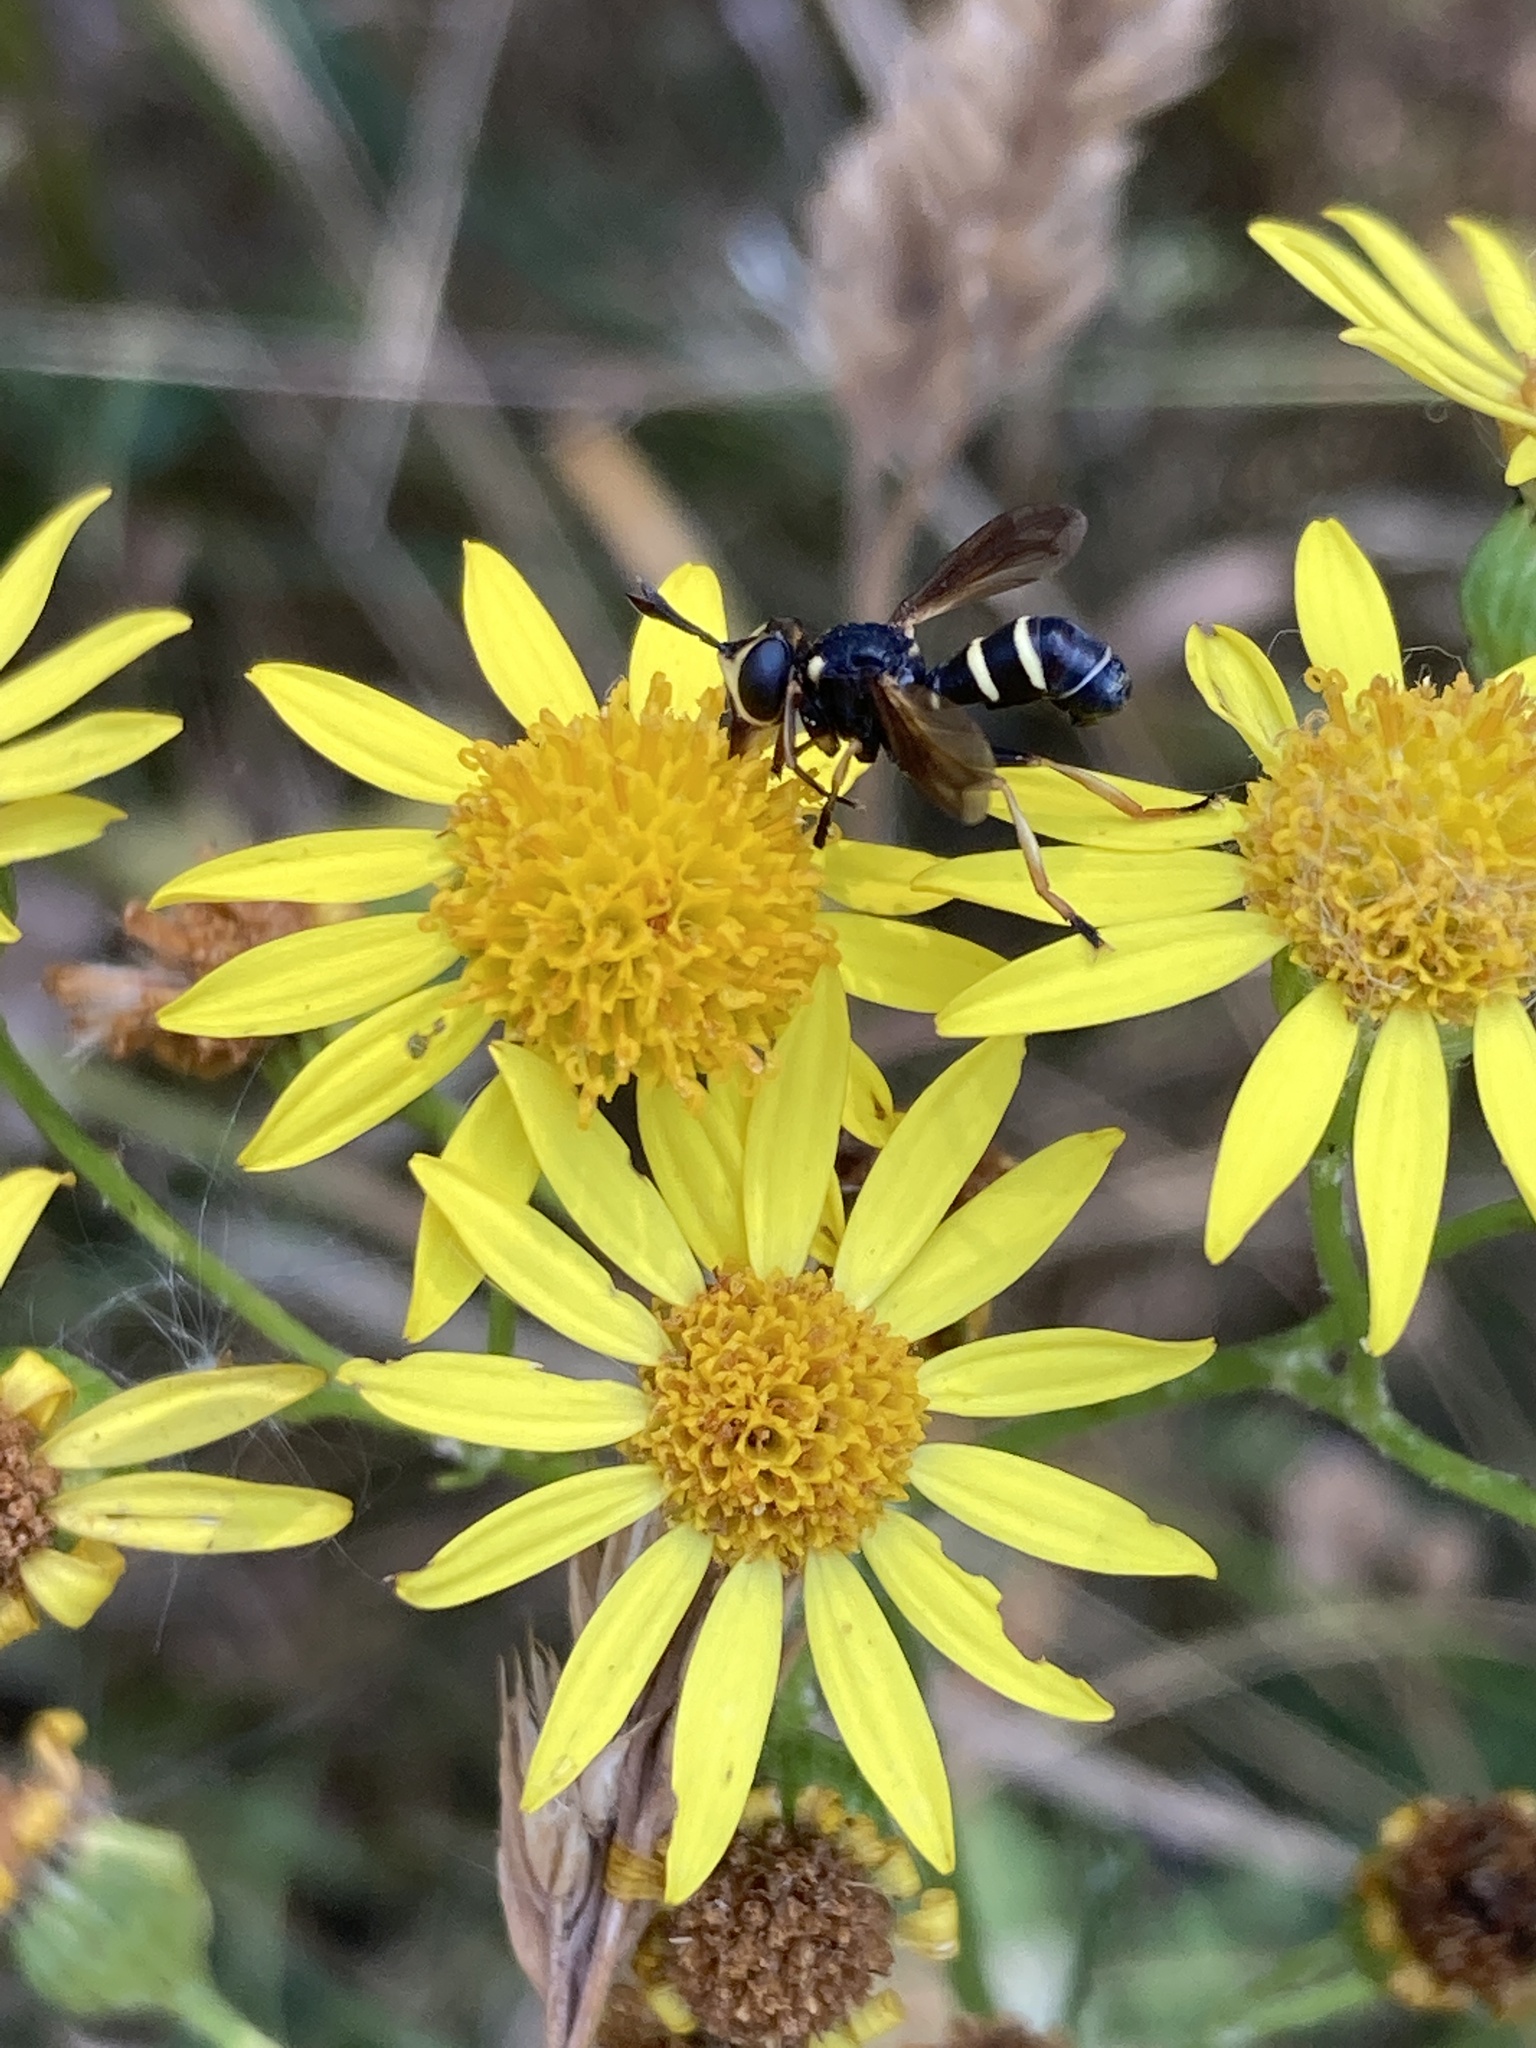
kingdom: Animalia
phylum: Arthropoda
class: Insecta
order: Diptera
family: Conopidae
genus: Conops
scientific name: Conops flavipes
